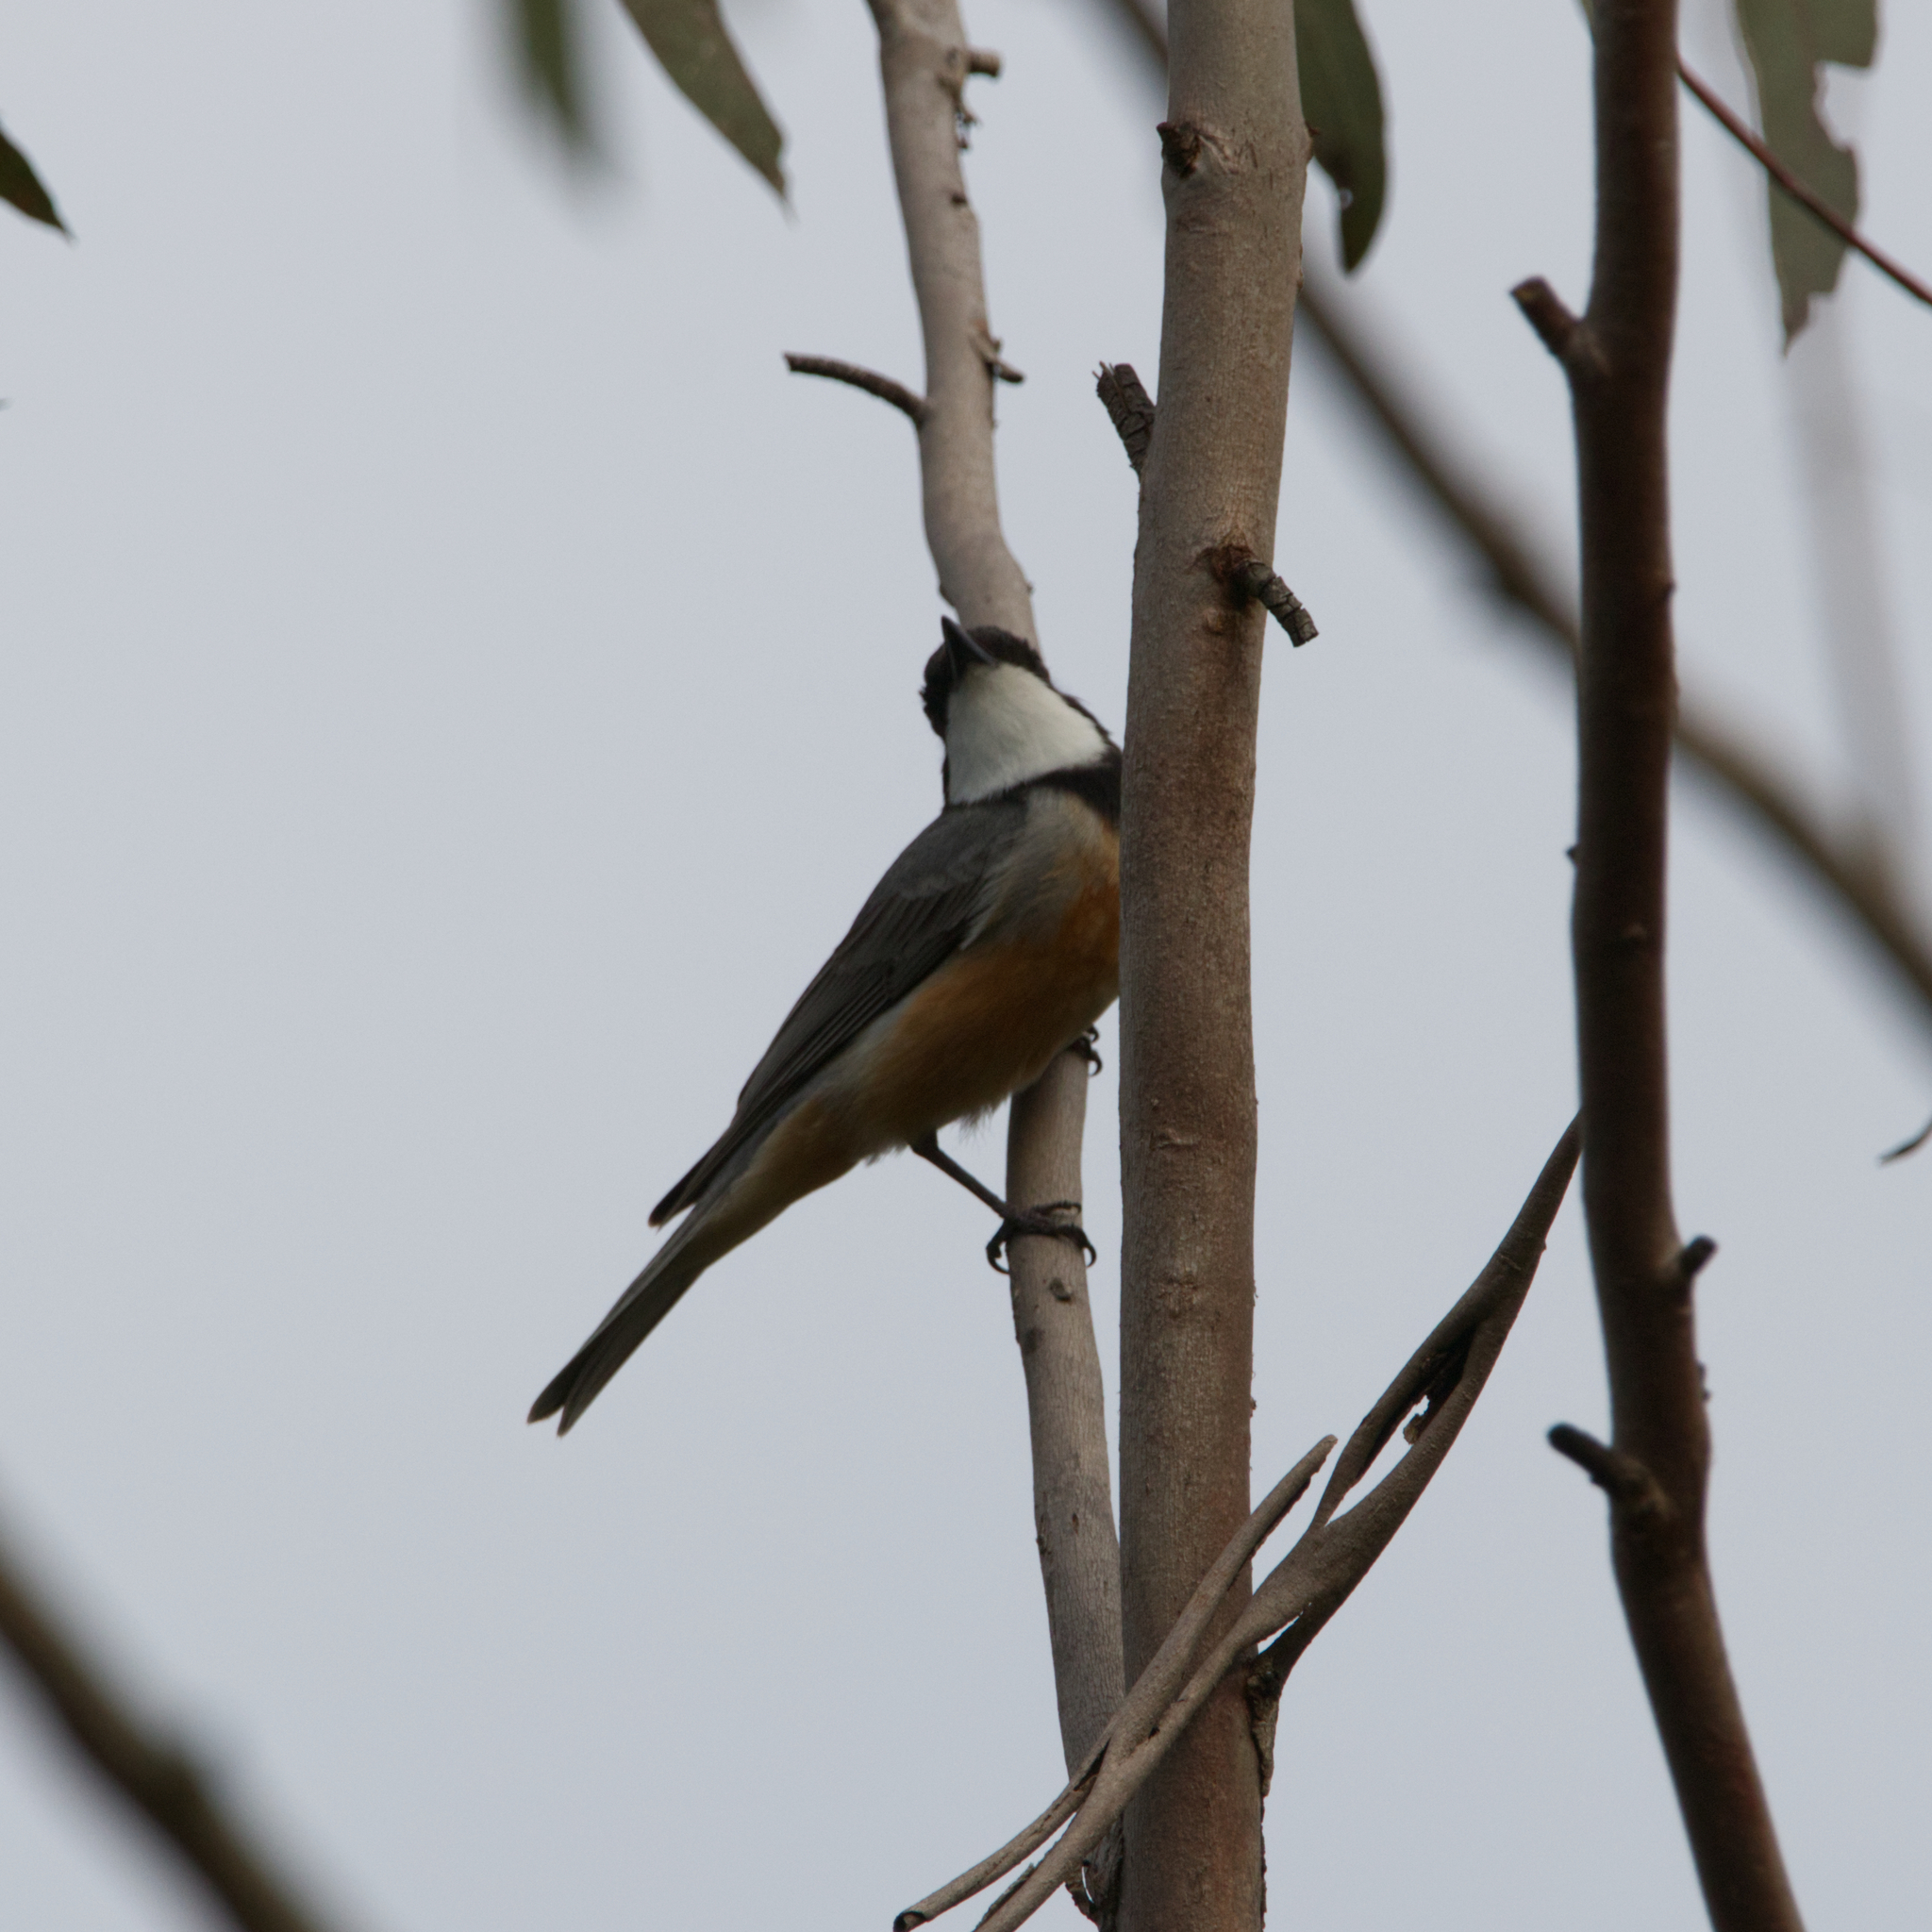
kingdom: Animalia
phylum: Chordata
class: Aves
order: Passeriformes
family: Pachycephalidae
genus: Pachycephala
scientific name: Pachycephala rufiventris
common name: Rufous whistler
